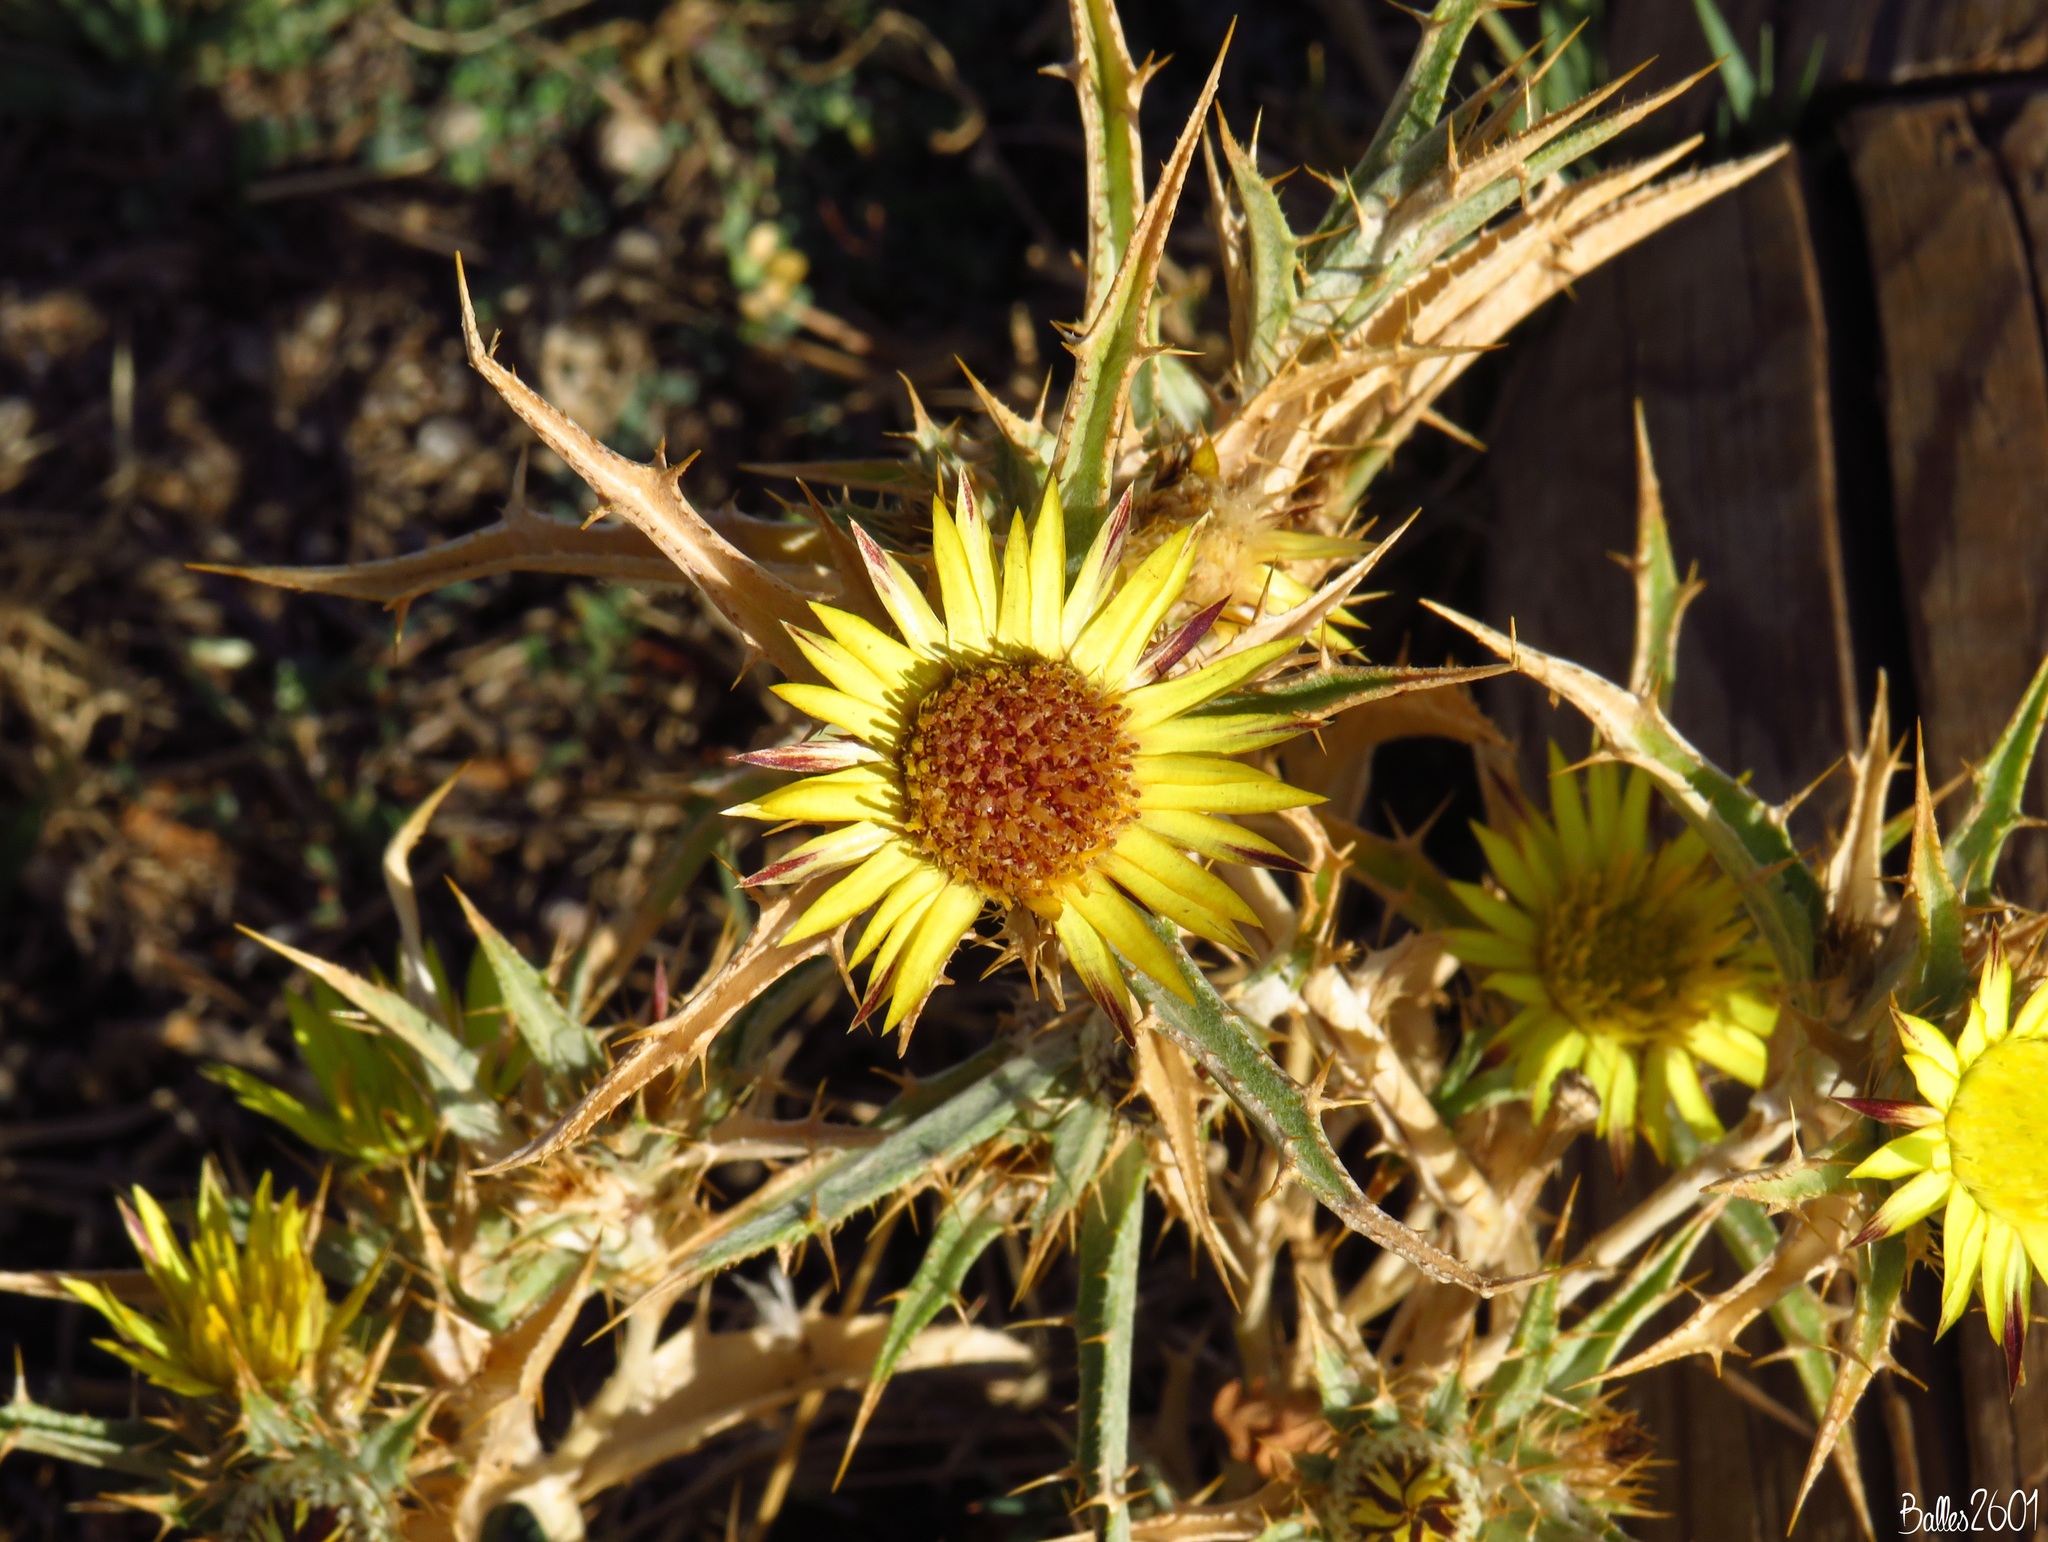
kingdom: Plantae
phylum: Tracheophyta
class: Magnoliopsida
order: Asterales
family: Asteraceae
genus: Carlina
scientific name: Carlina racemosa
